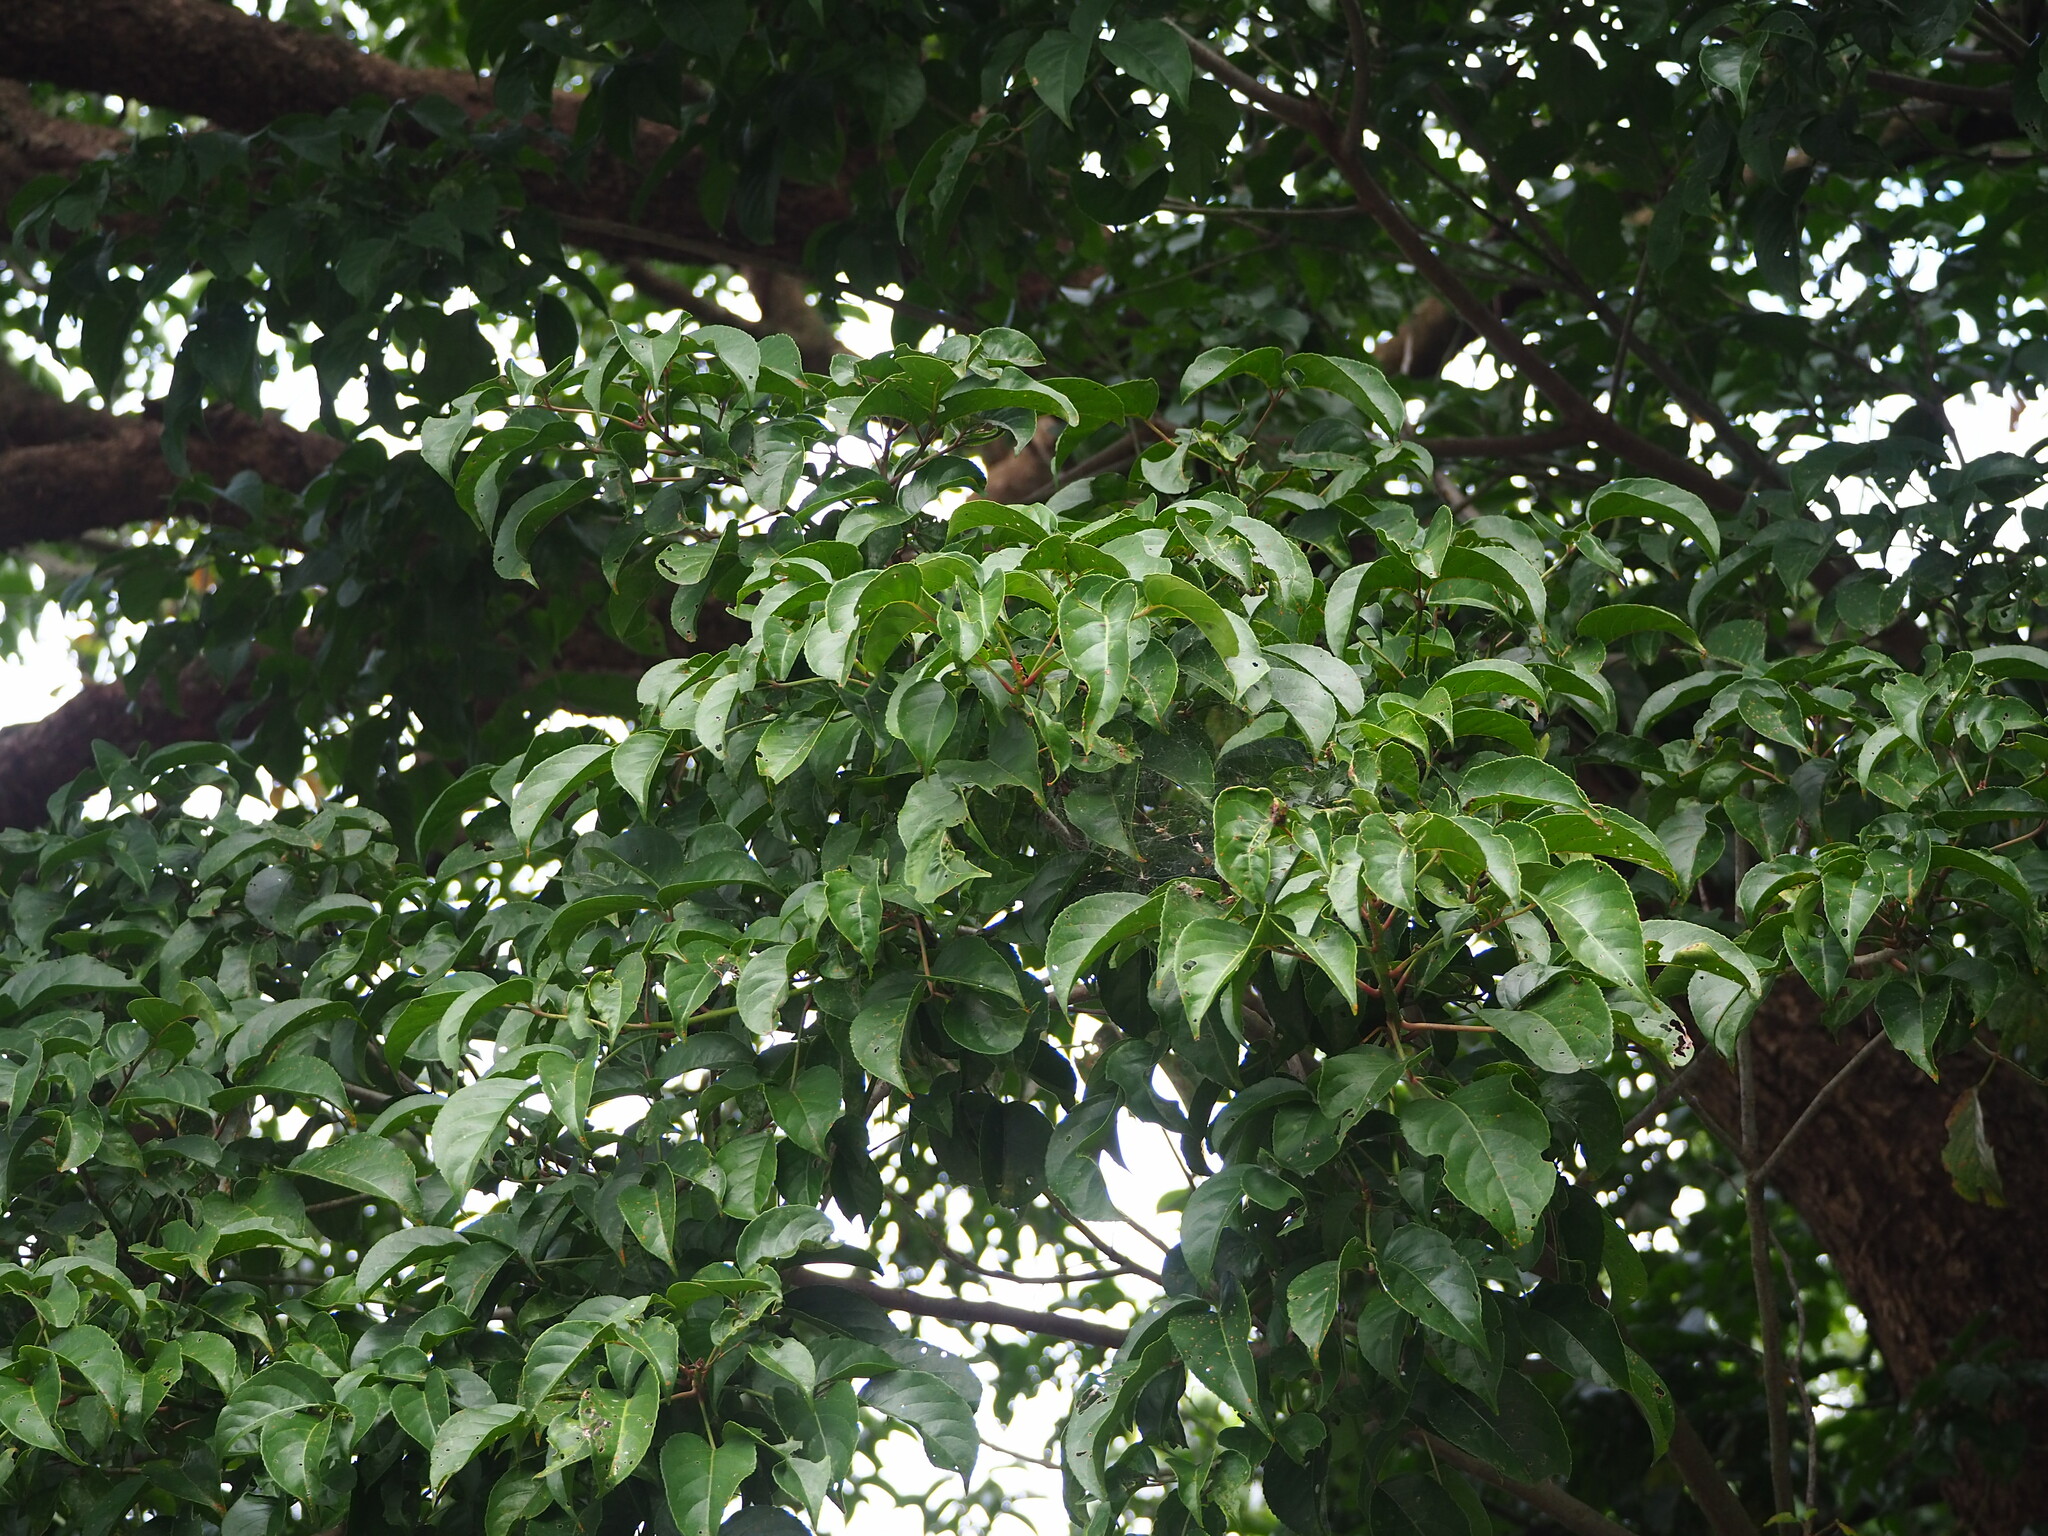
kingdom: Plantae
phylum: Tracheophyta
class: Magnoliopsida
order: Malpighiales
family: Phyllanthaceae
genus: Bischofia
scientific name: Bischofia javanica
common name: Javanese bishopwood
